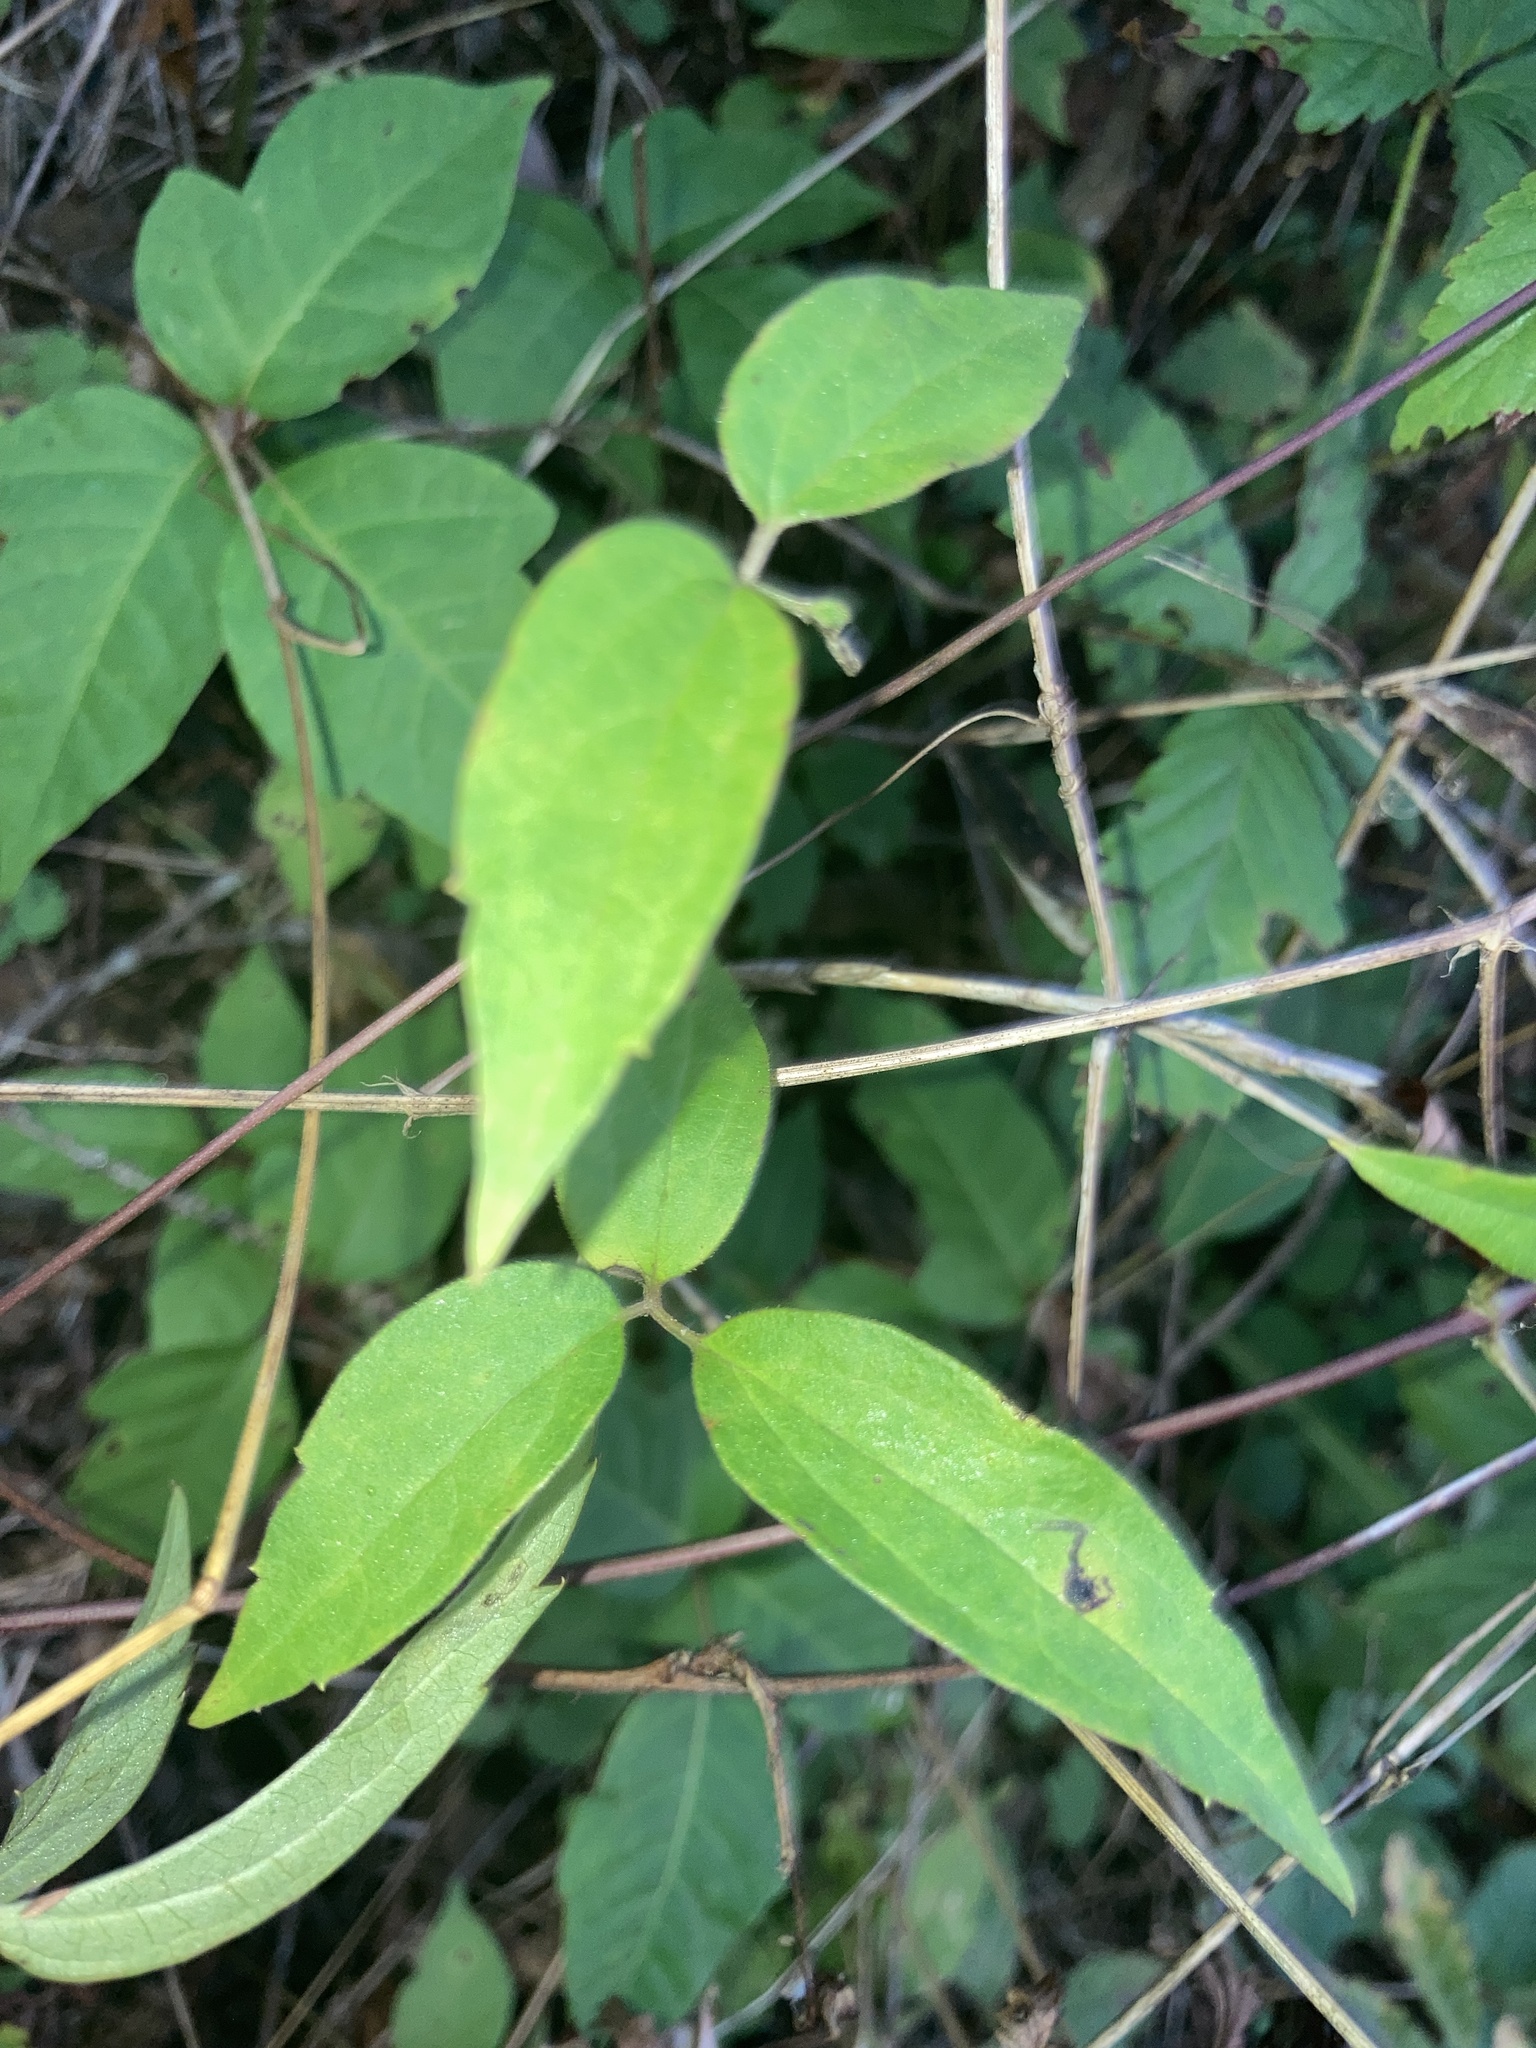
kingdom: Plantae
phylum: Tracheophyta
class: Magnoliopsida
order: Ranunculales
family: Ranunculaceae
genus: Clematis
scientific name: Clematis virginiana
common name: Virgin's-bower
